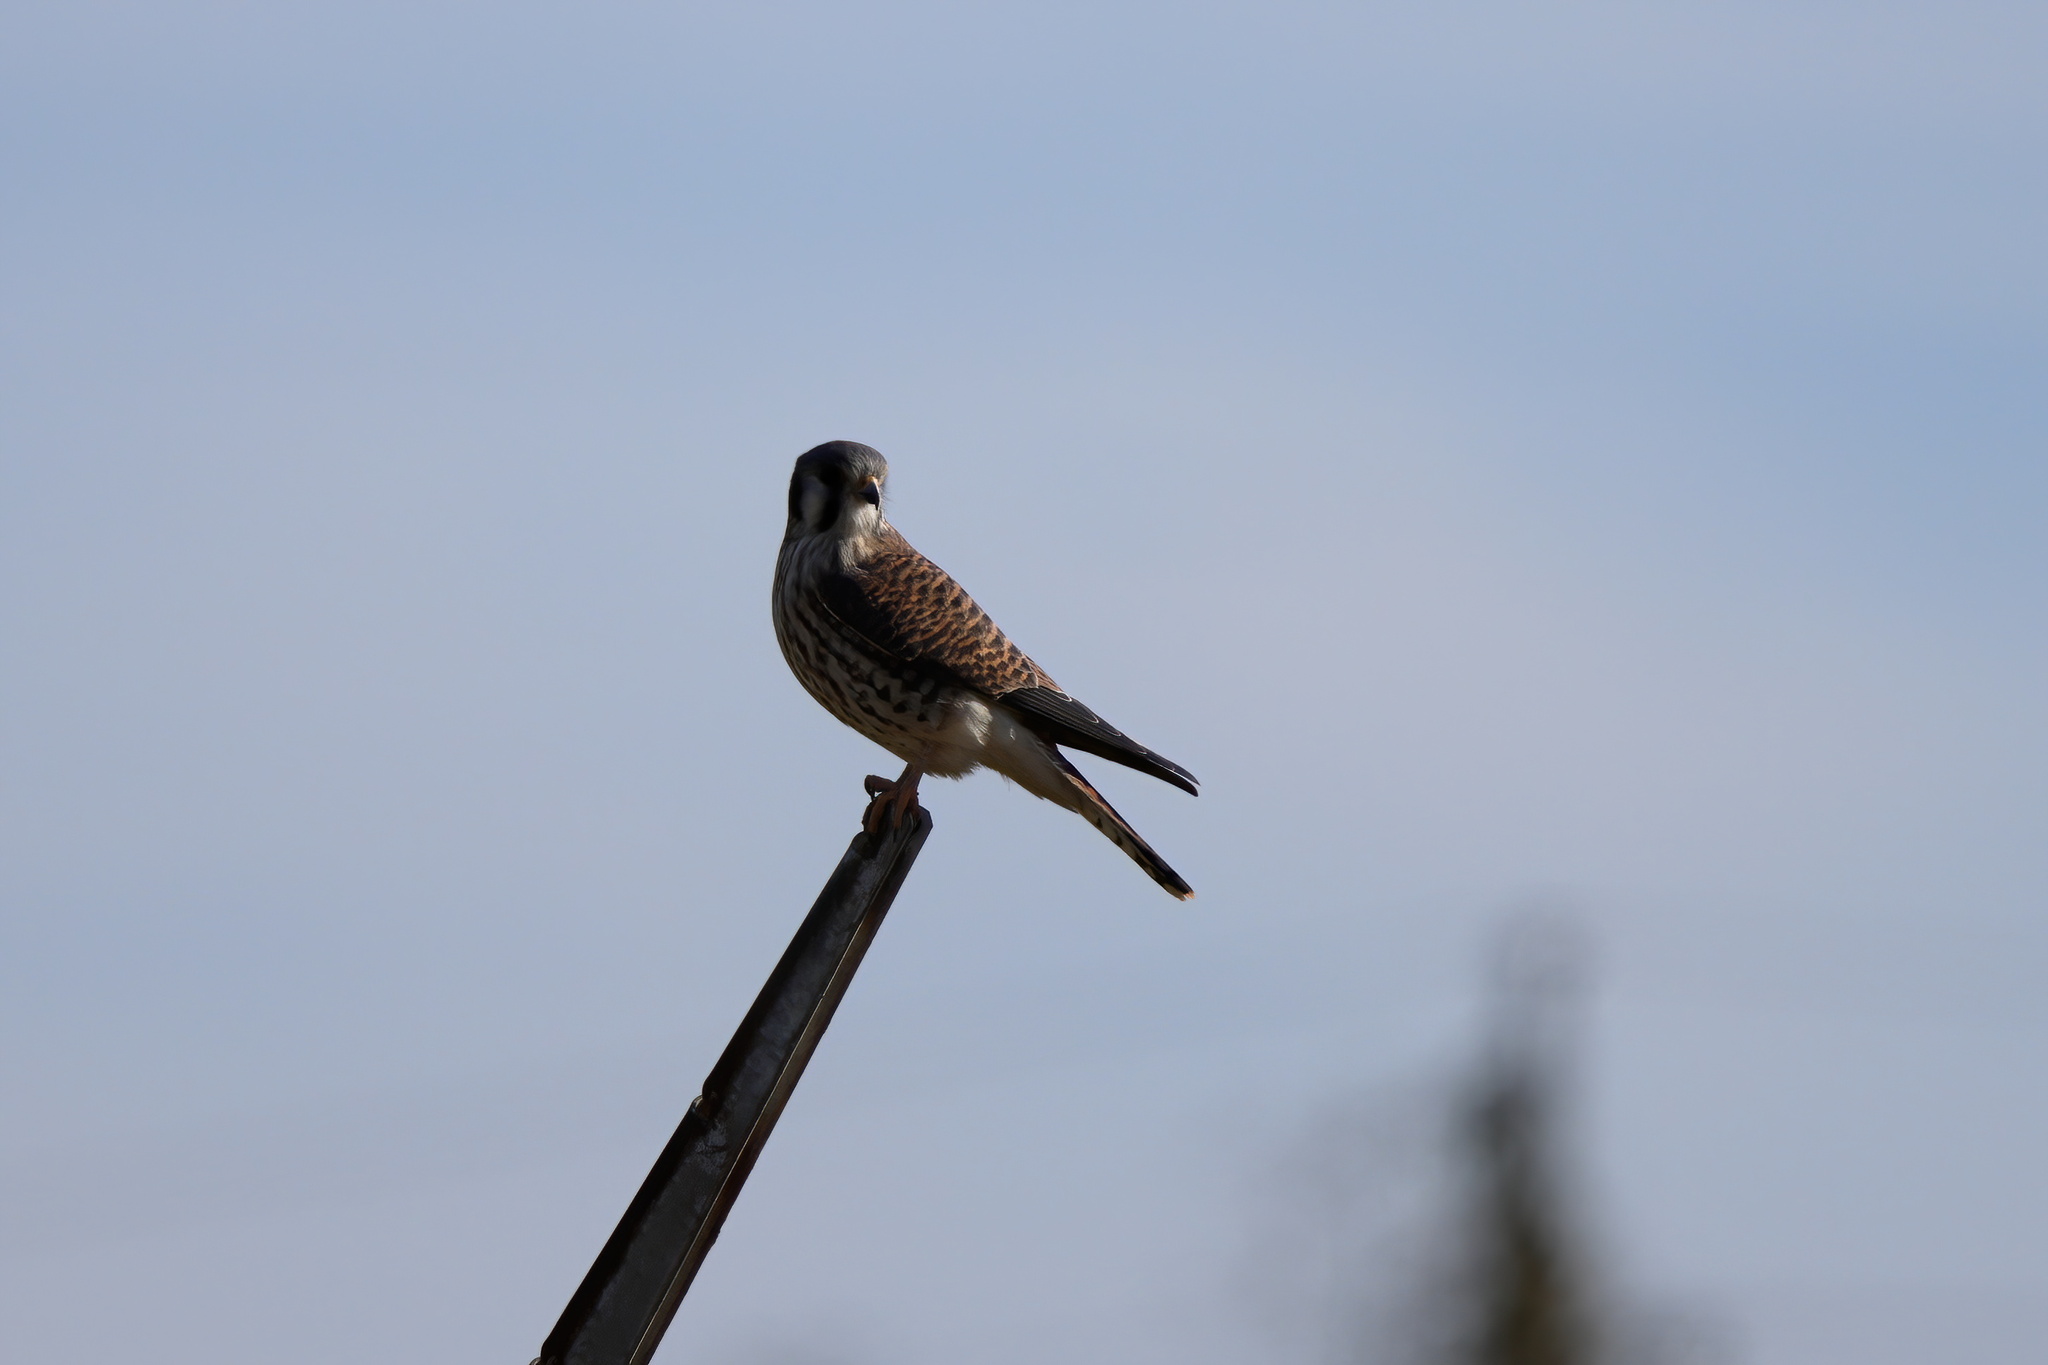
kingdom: Animalia
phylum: Chordata
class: Aves
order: Falconiformes
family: Falconidae
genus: Falco
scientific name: Falco sparverius
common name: American kestrel
